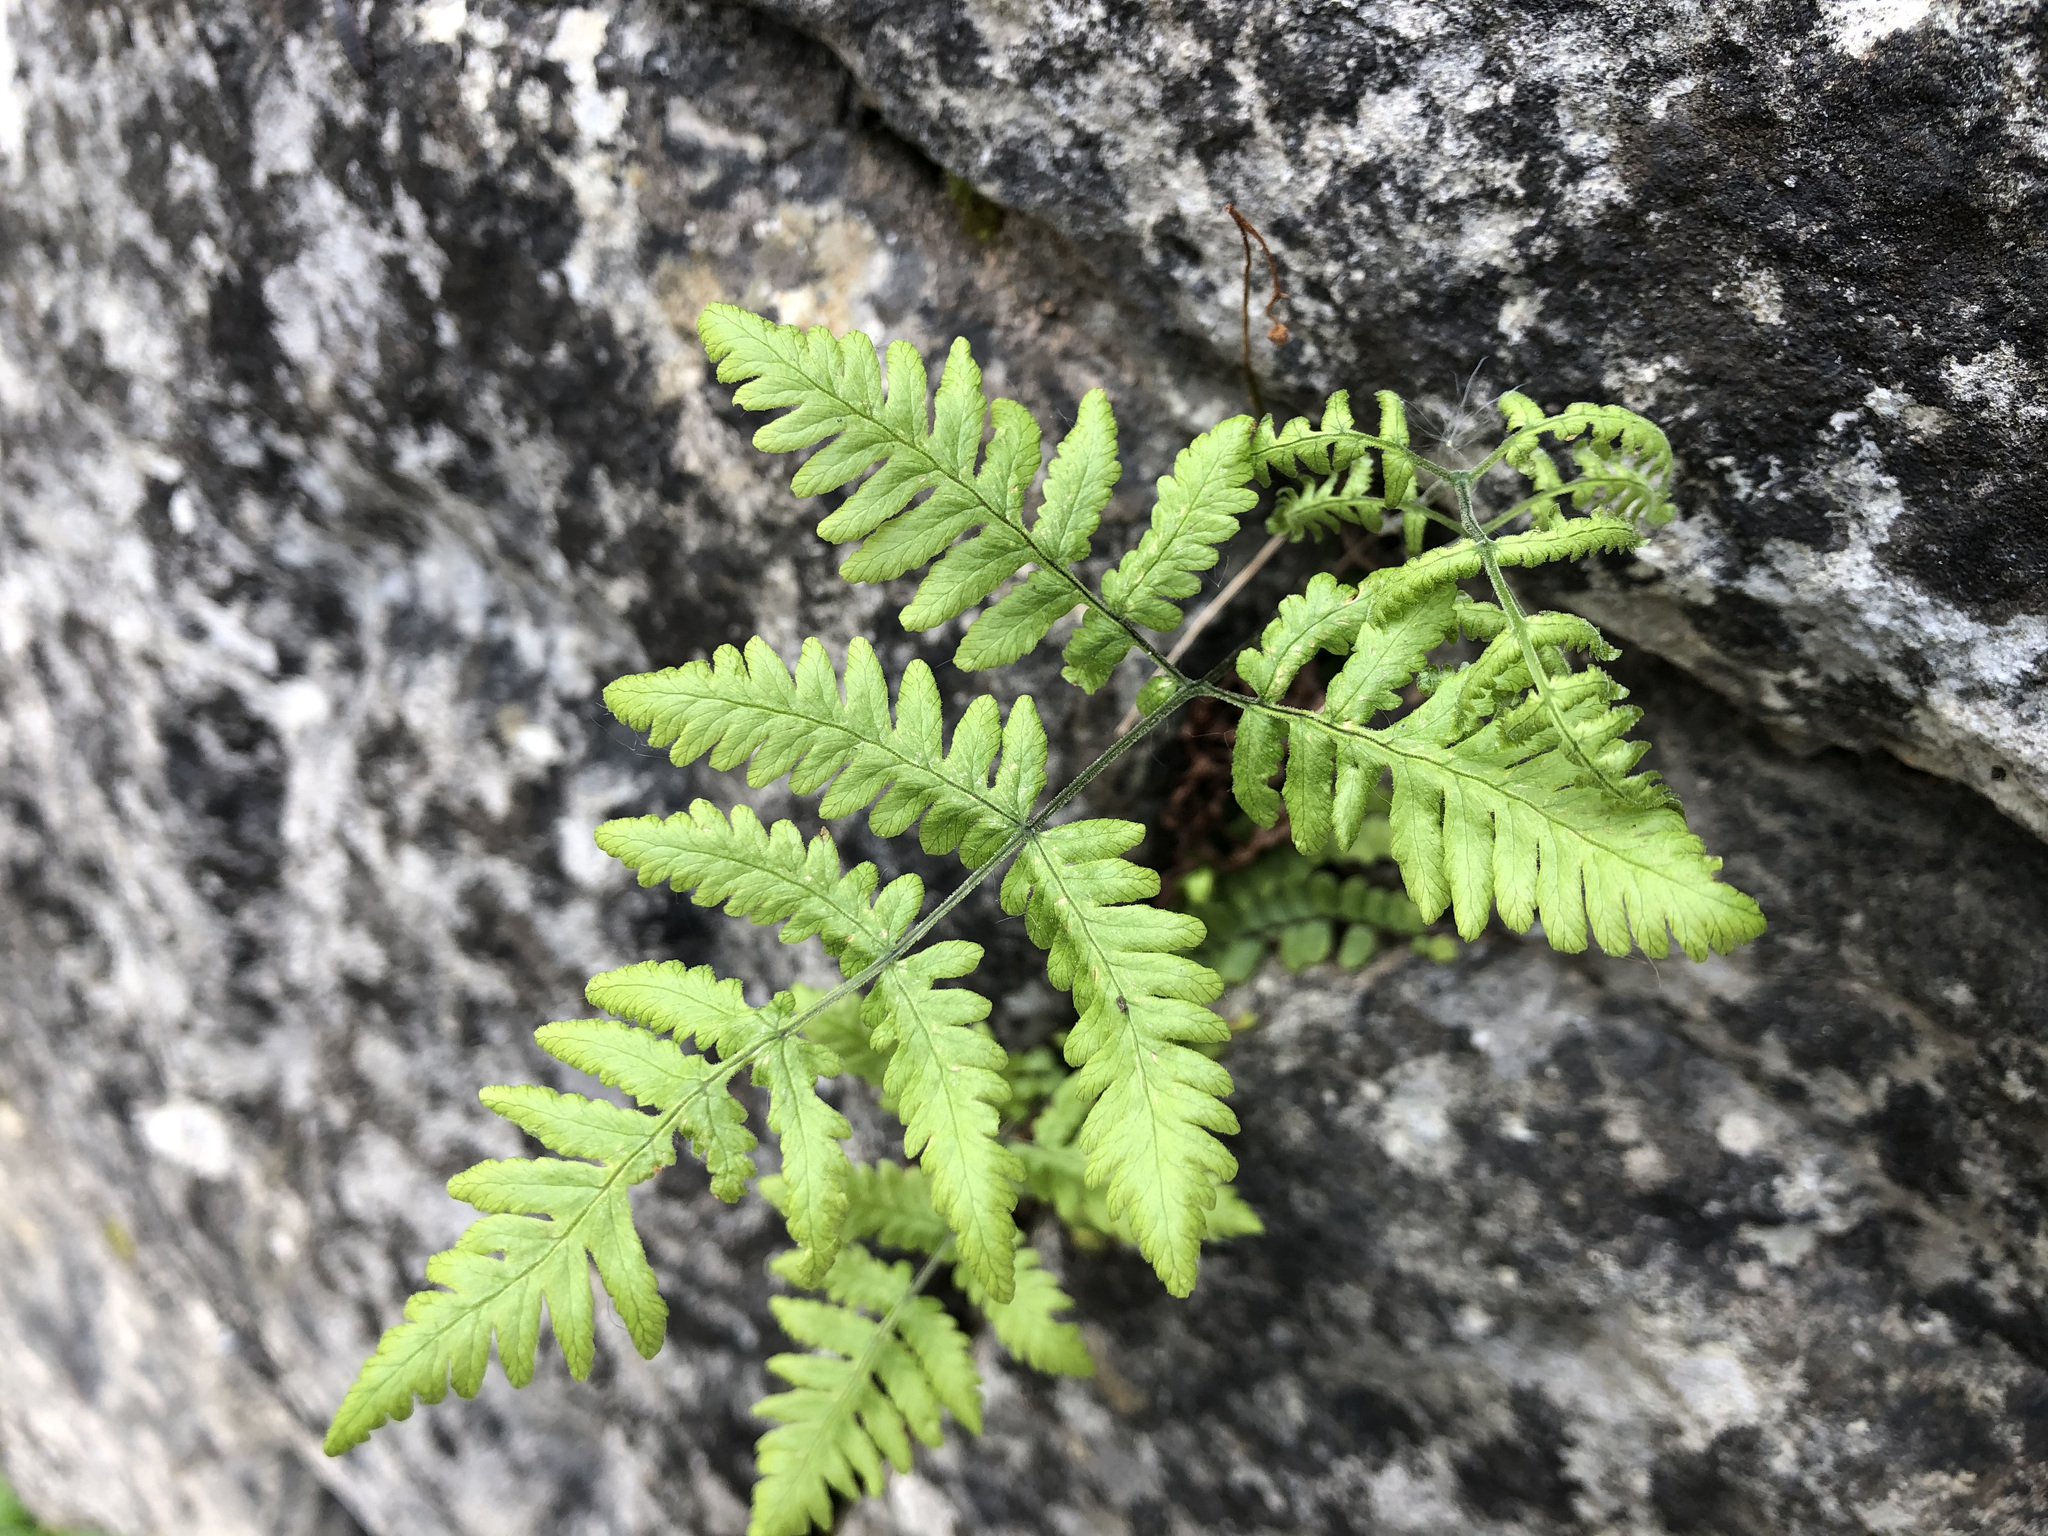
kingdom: Plantae
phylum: Tracheophyta
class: Polypodiopsida
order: Polypodiales
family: Cystopteridaceae
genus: Gymnocarpium
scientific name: Gymnocarpium robertianum
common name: Limestone fern
